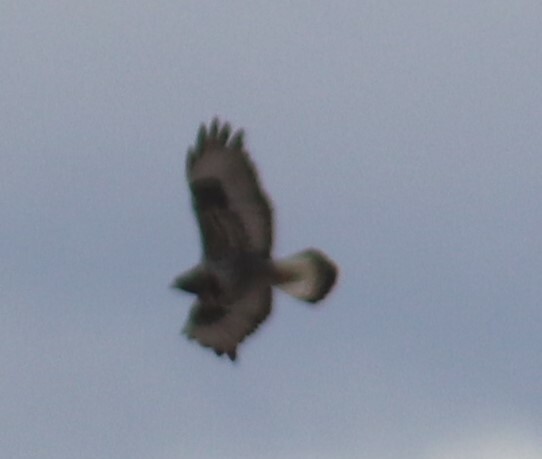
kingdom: Animalia
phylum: Chordata
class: Aves
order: Accipitriformes
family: Accipitridae
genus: Buteo
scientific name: Buteo lagopus
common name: Rough-legged buzzard
